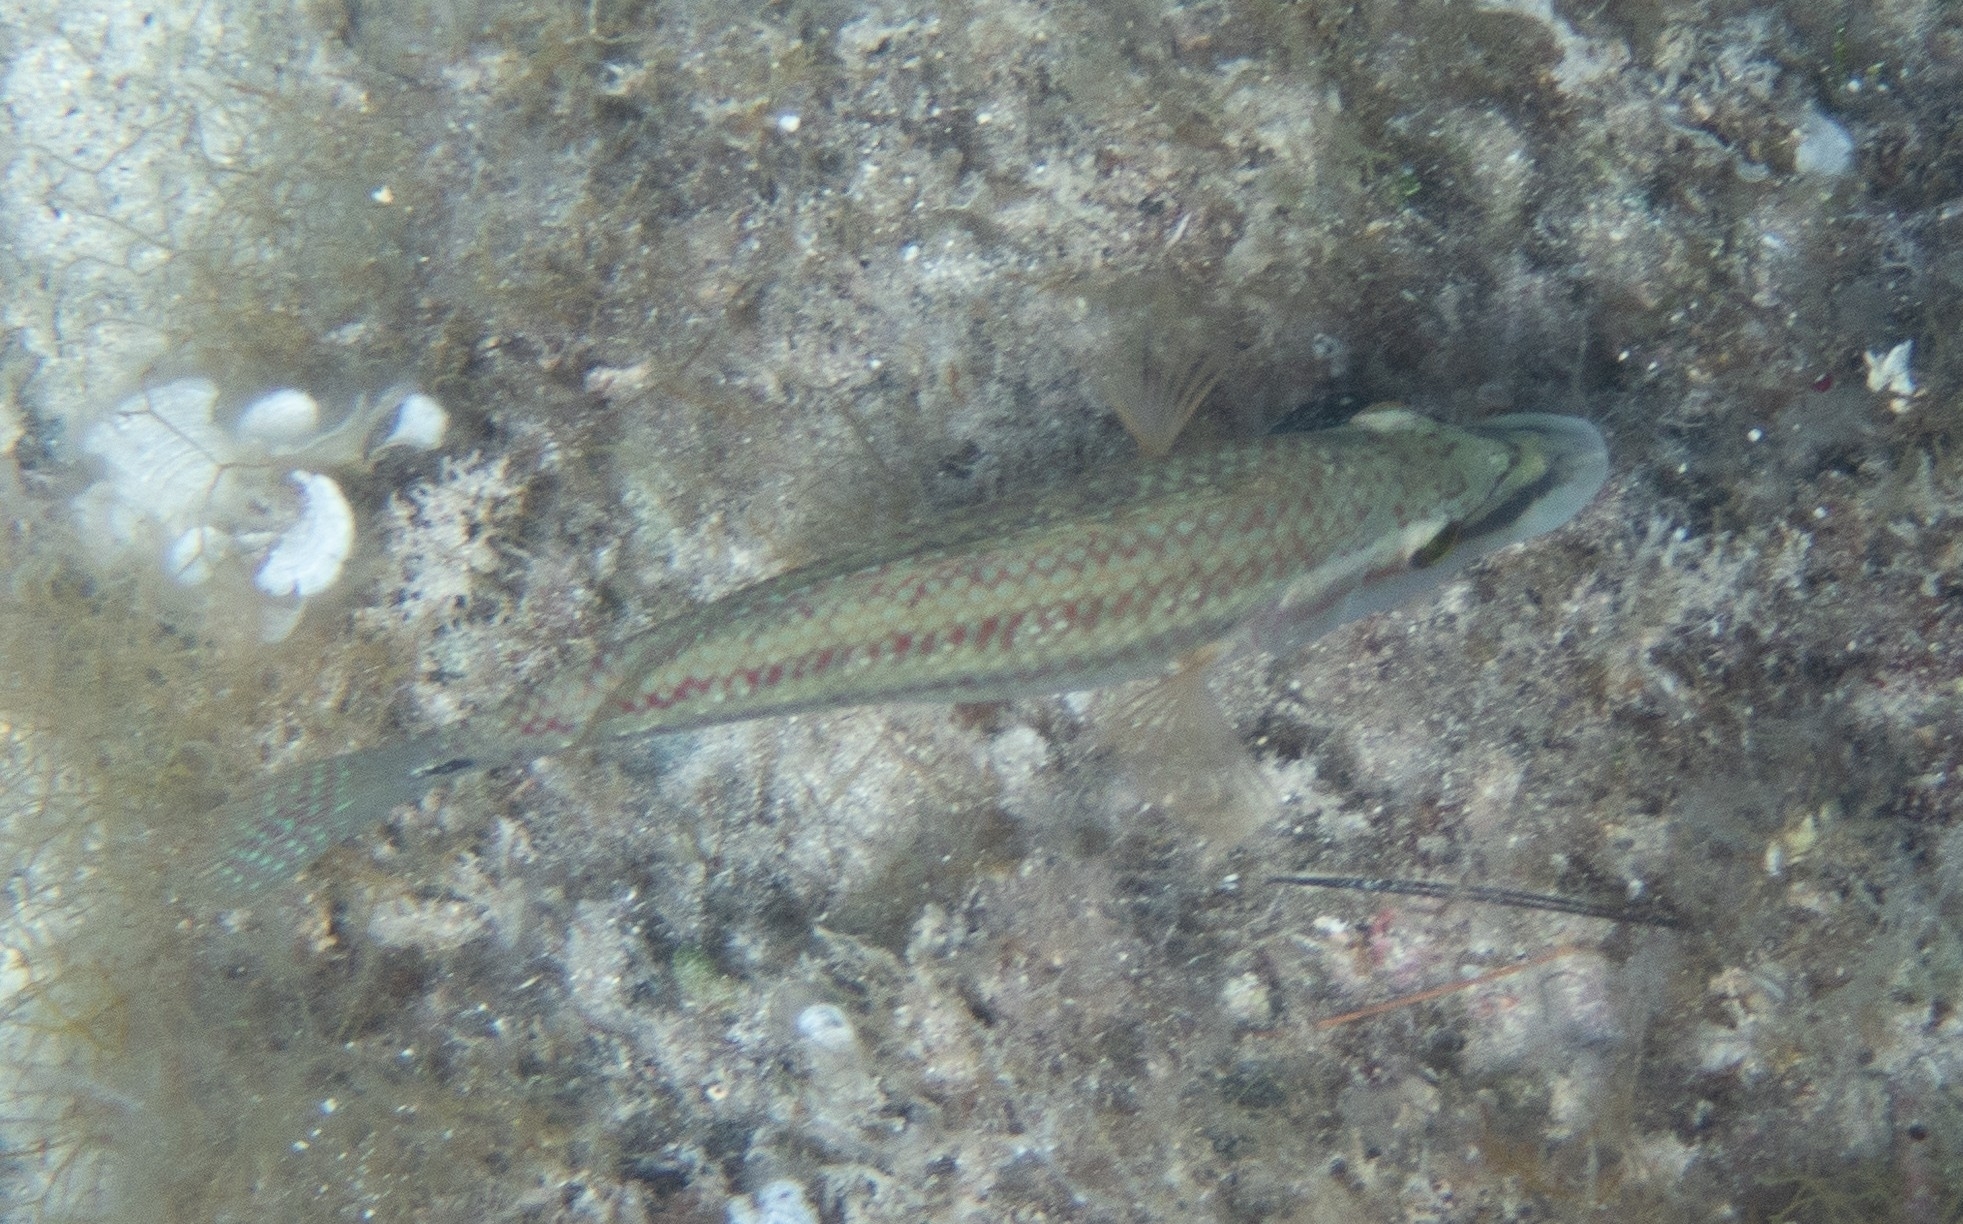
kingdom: Animalia
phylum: Chordata
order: Perciformes
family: Labridae
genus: Symphodus
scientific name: Symphodus tinca
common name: Peacock wrasse
